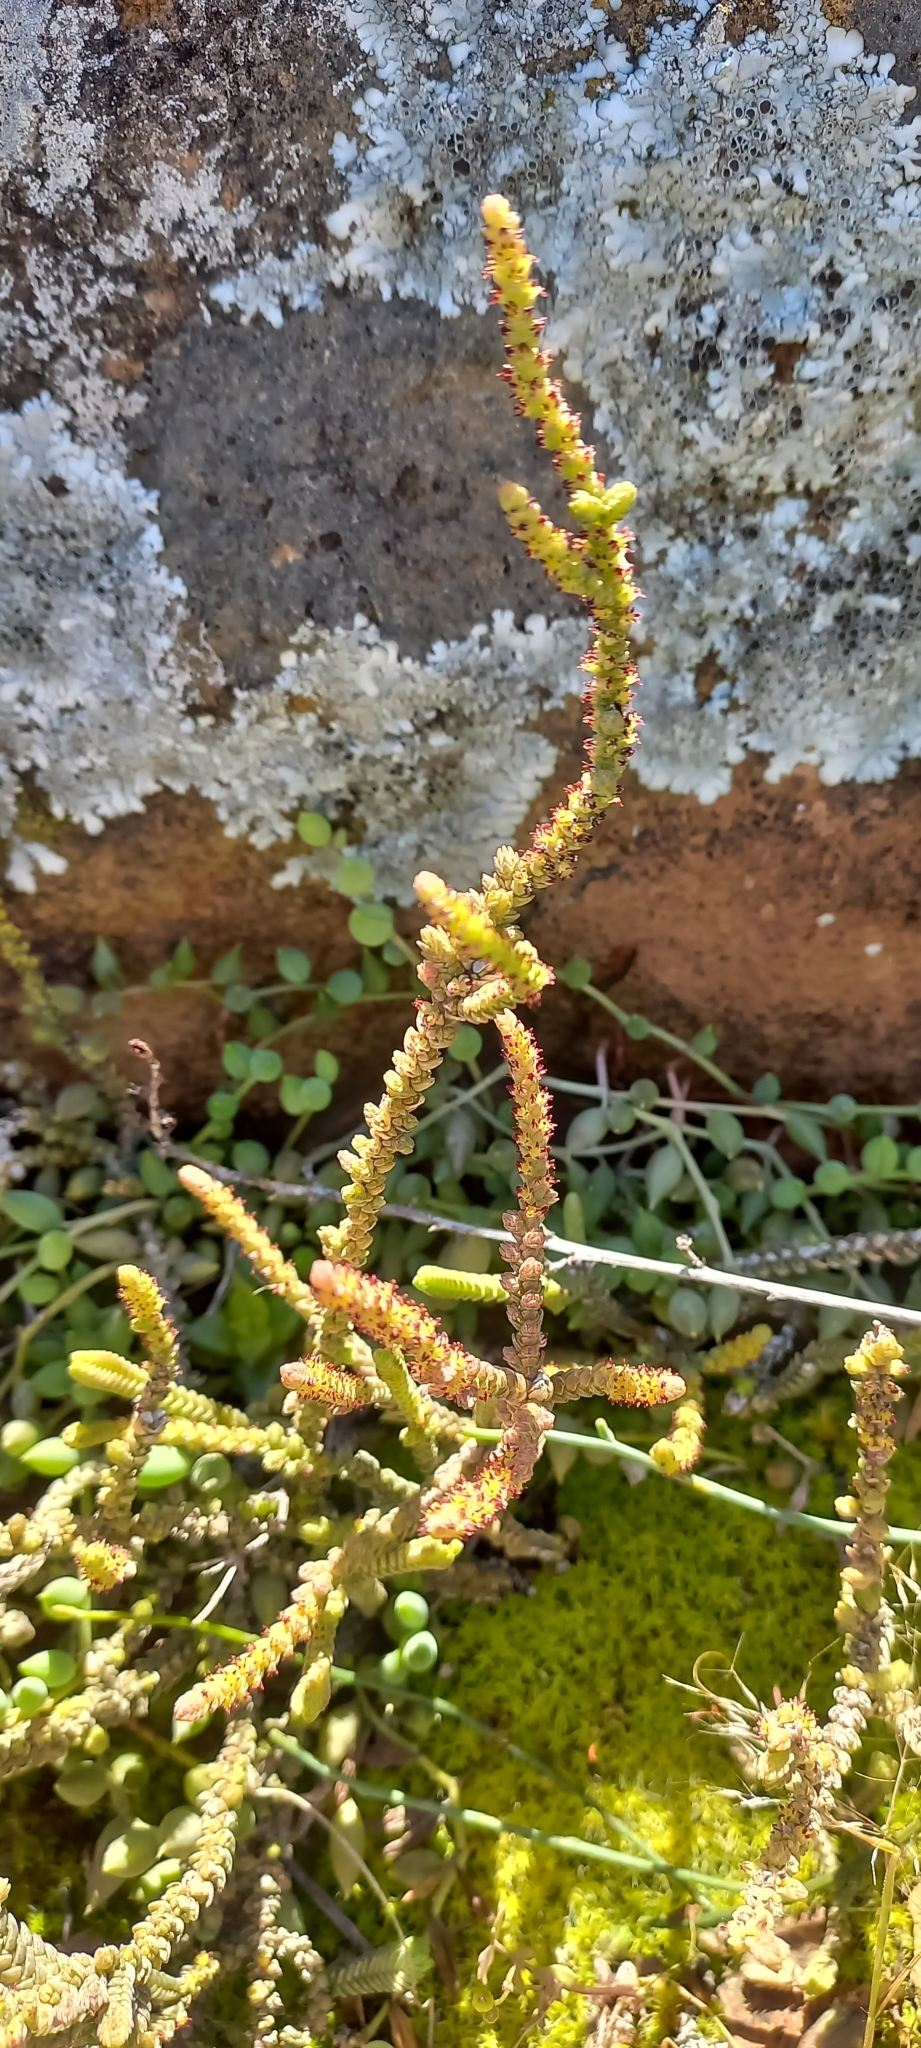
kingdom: Plantae
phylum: Tracheophyta
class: Magnoliopsida
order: Saxifragales
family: Crassulaceae
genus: Crassula
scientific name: Crassula muscosa
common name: Toy-cypress
